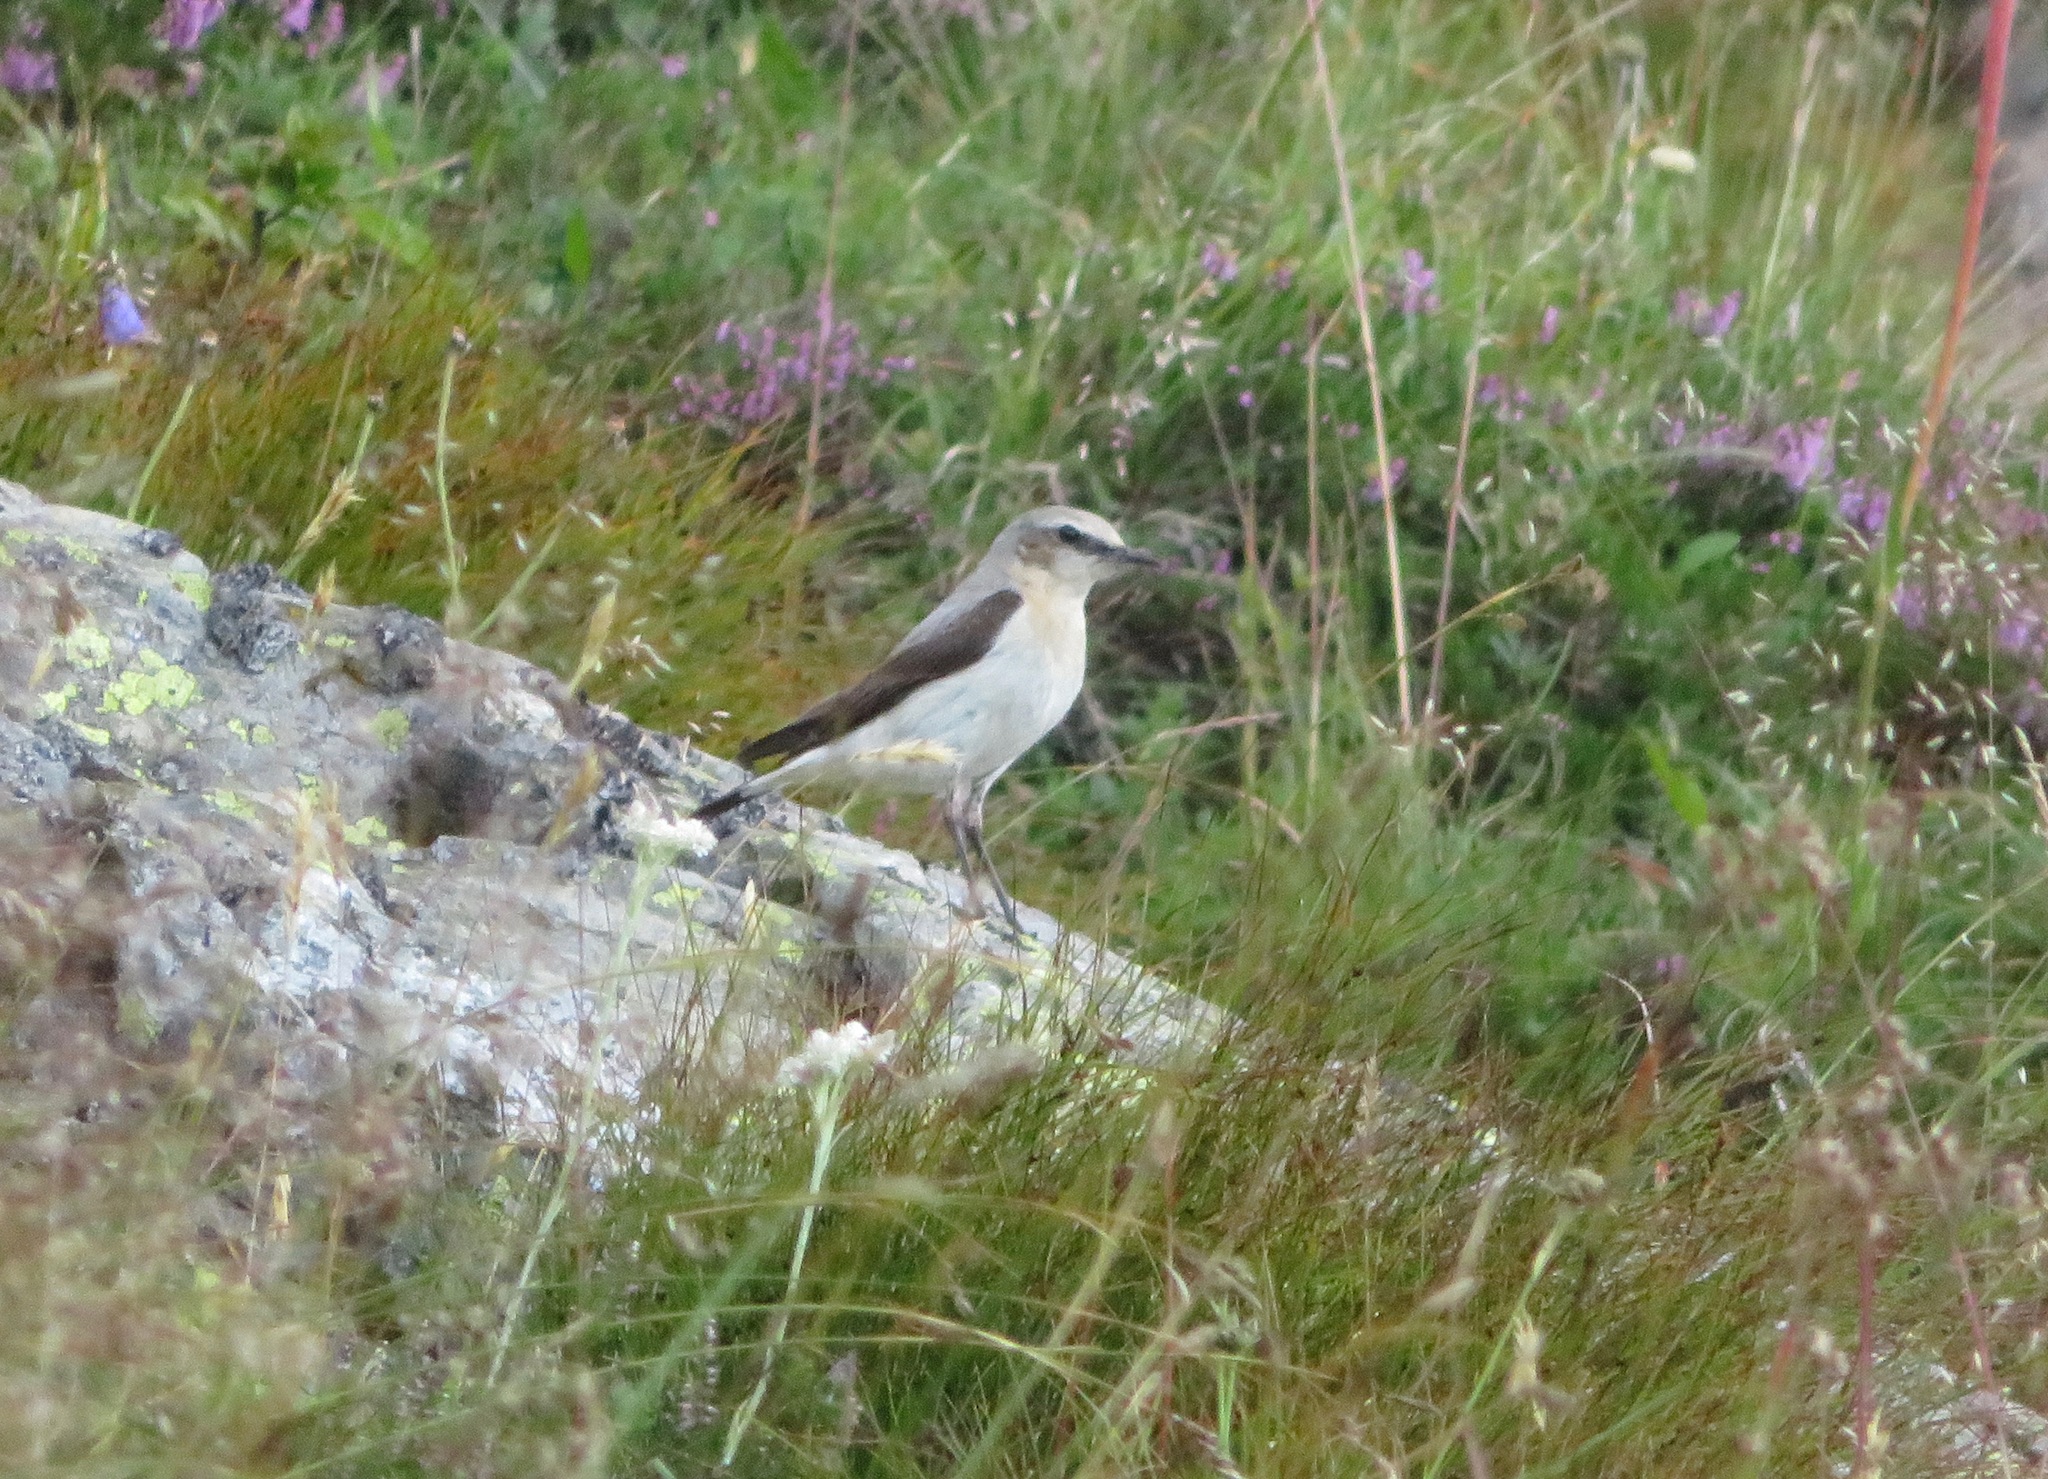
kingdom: Animalia
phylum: Chordata
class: Aves
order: Passeriformes
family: Muscicapidae
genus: Oenanthe
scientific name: Oenanthe oenanthe
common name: Northern wheatear
